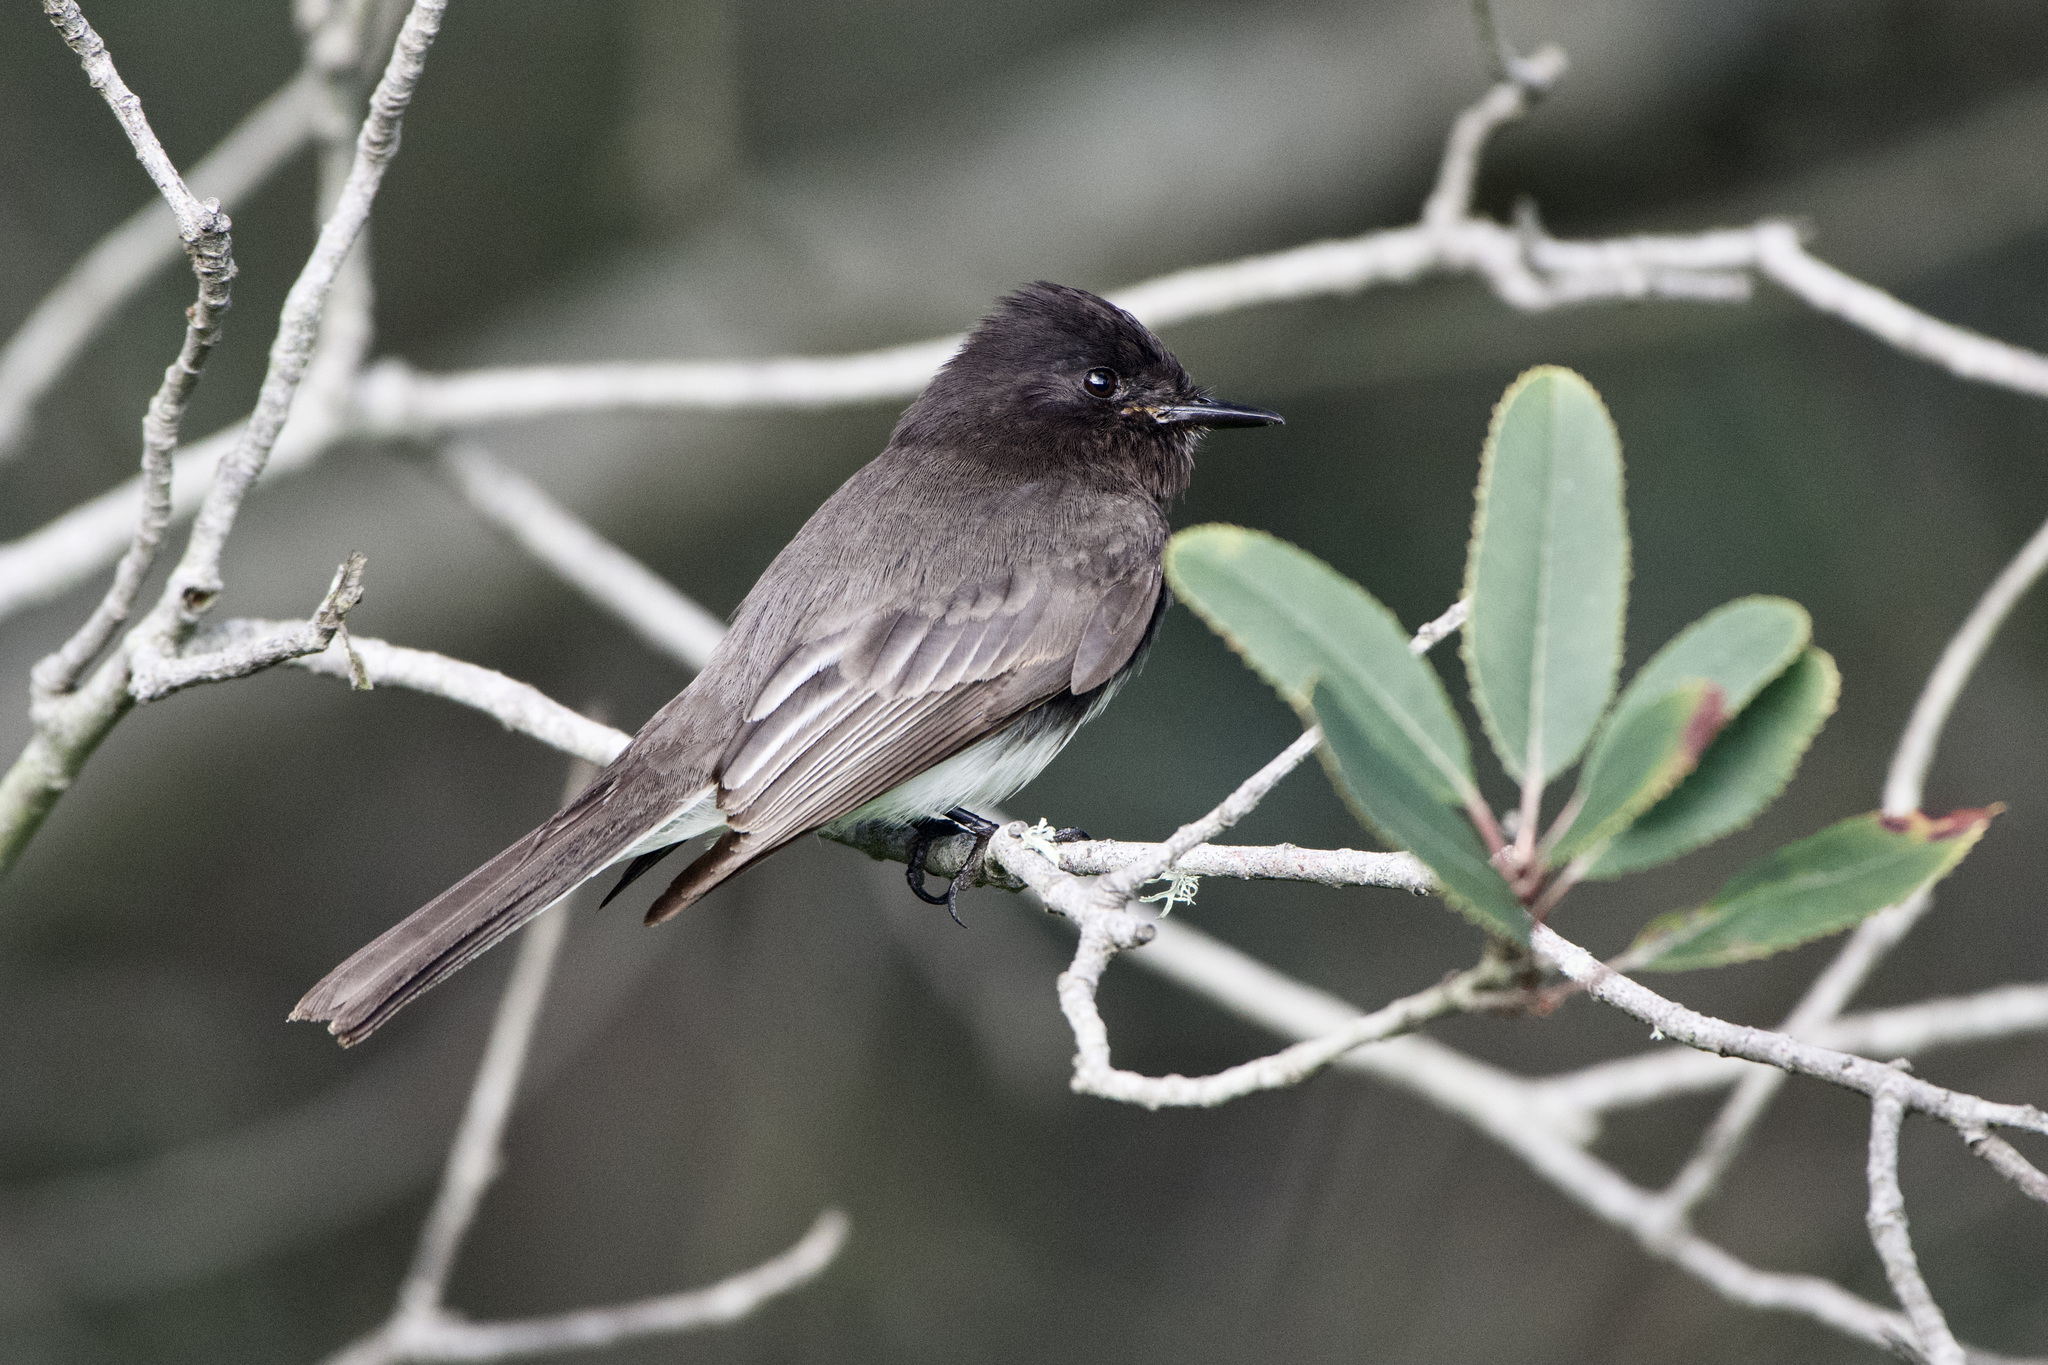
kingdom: Animalia
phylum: Chordata
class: Aves
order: Passeriformes
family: Tyrannidae
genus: Sayornis
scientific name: Sayornis nigricans
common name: Black phoebe
